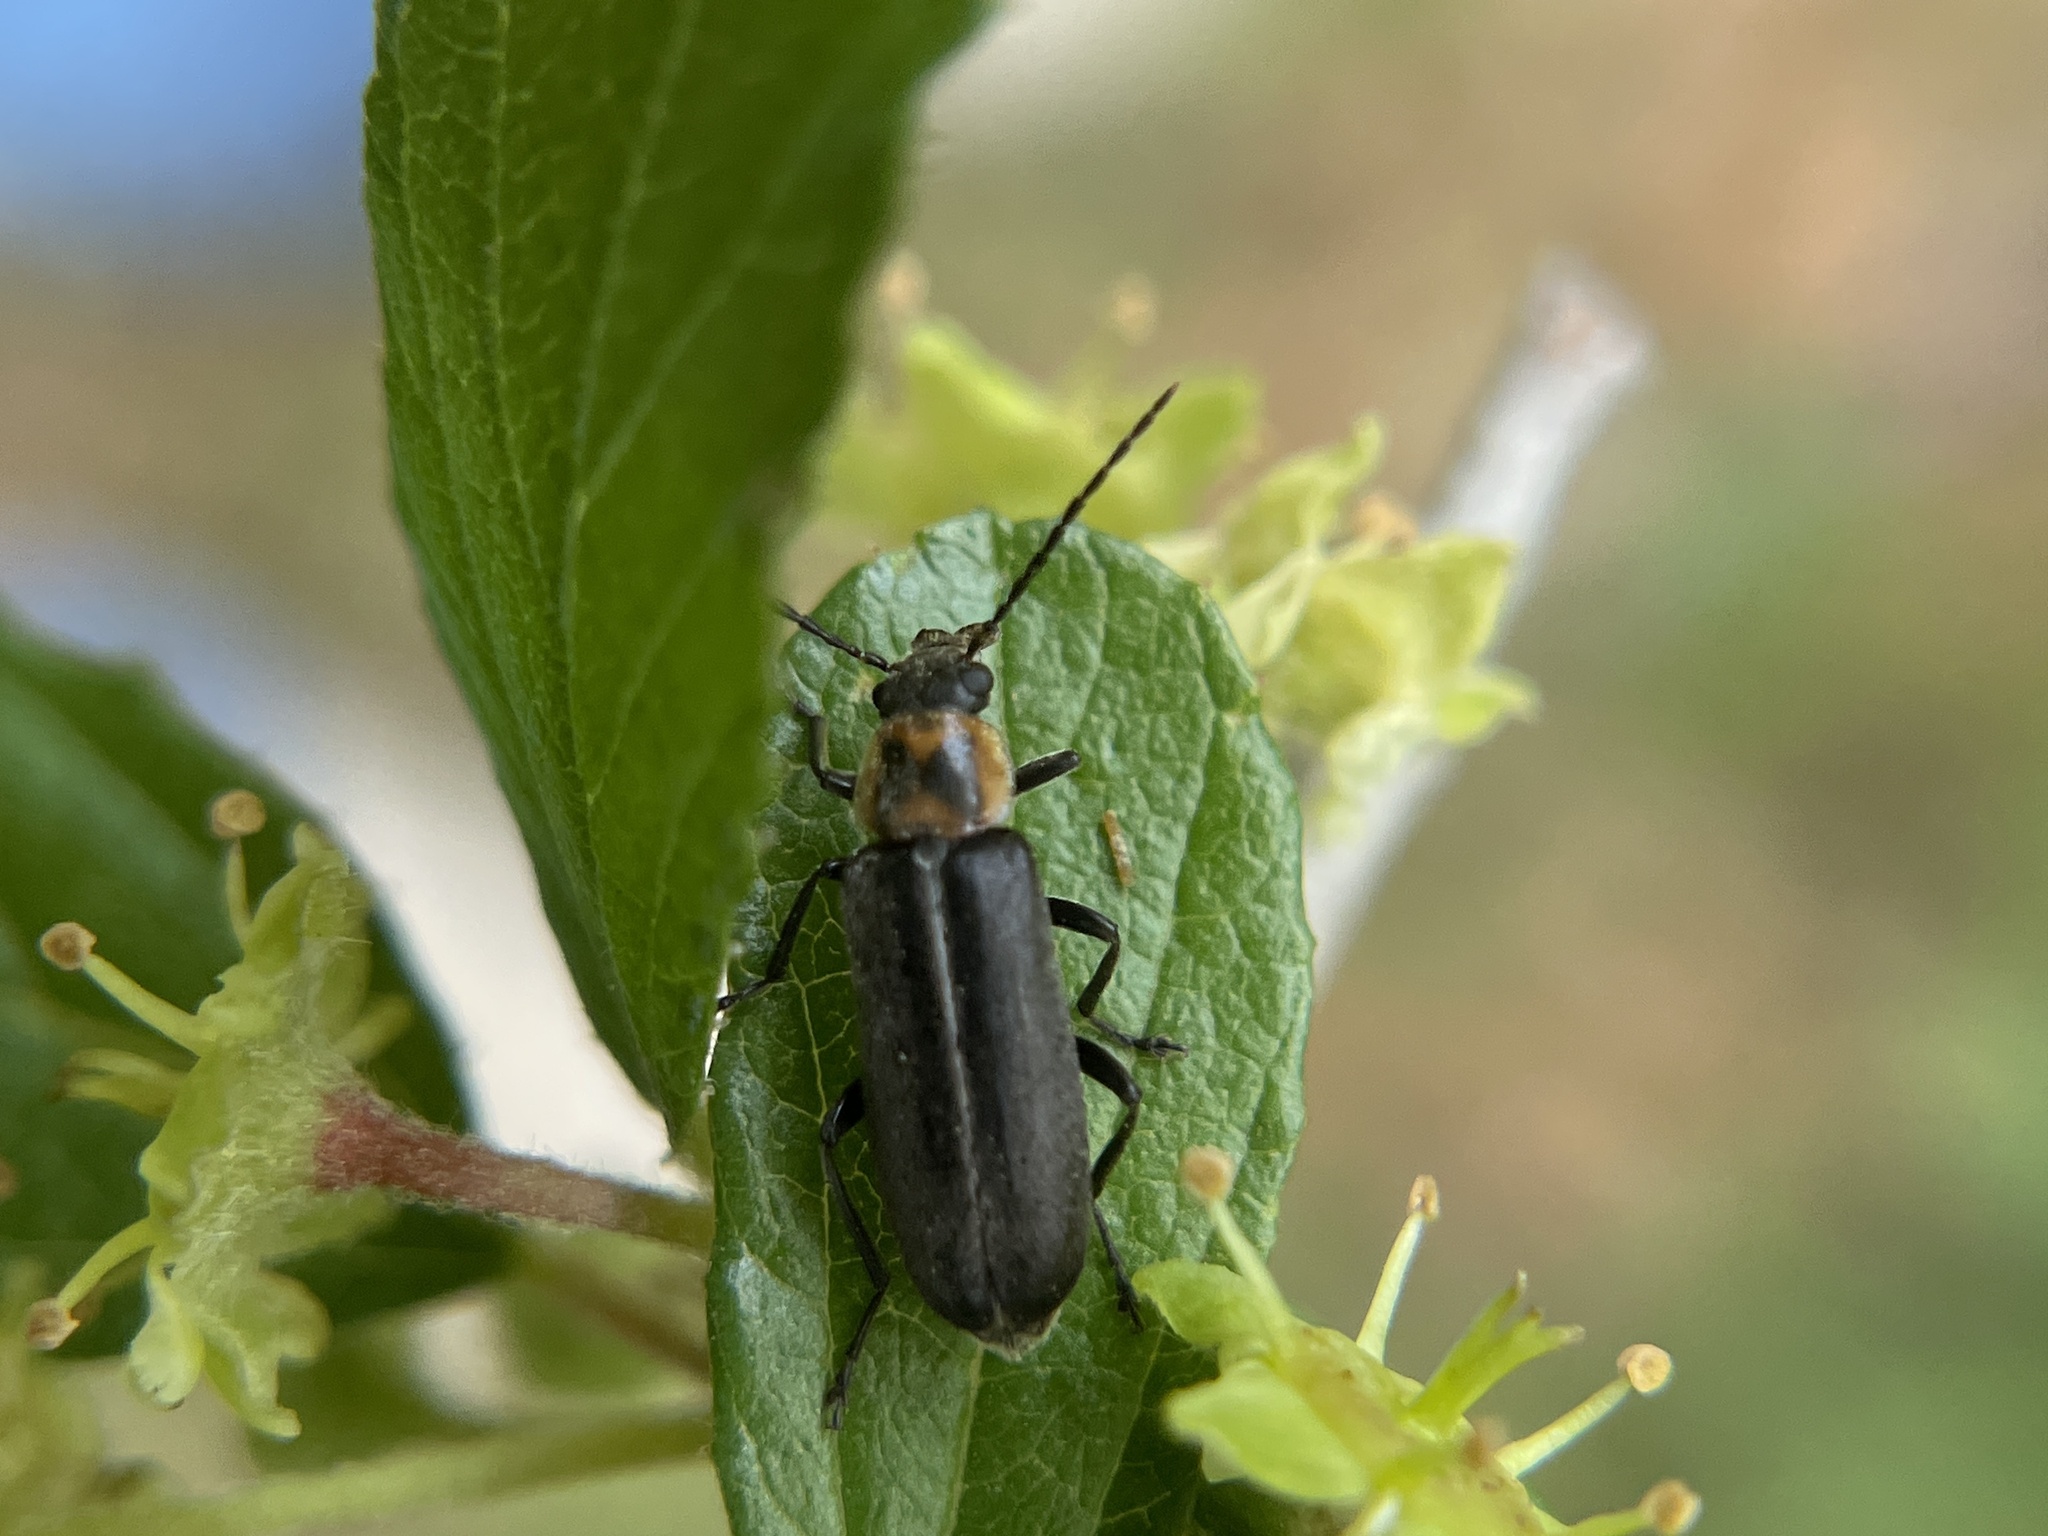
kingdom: Animalia
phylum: Arthropoda
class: Insecta
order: Coleoptera
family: Melandryidae
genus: Osphya
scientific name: Osphya varians
